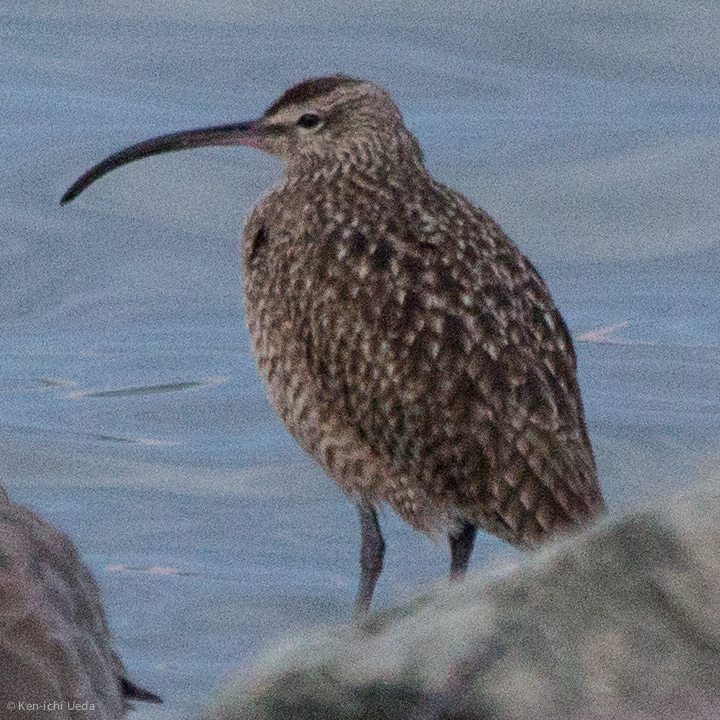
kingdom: Animalia
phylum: Chordata
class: Aves
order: Charadriiformes
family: Scolopacidae
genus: Numenius
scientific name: Numenius phaeopus
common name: Whimbrel
